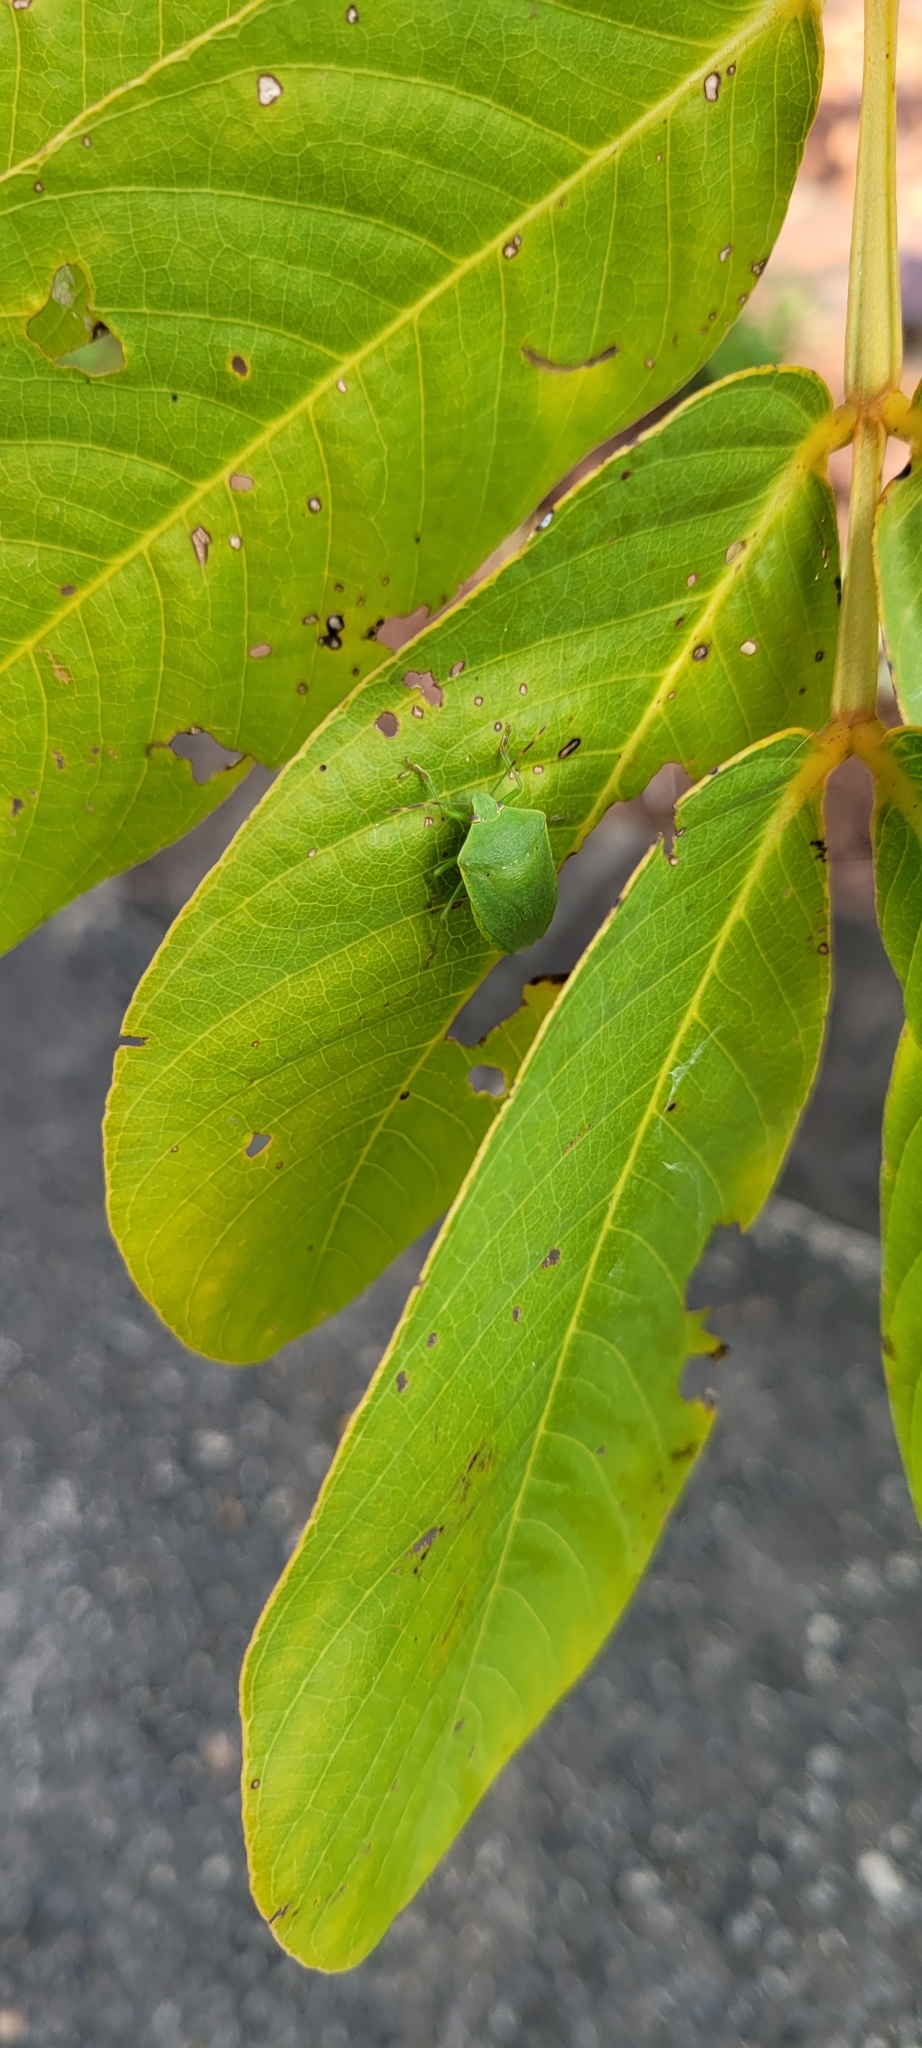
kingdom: Animalia
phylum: Arthropoda
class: Insecta
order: Hemiptera
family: Pentatomidae
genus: Nezara
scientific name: Nezara viridula
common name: Southern green stink bug
